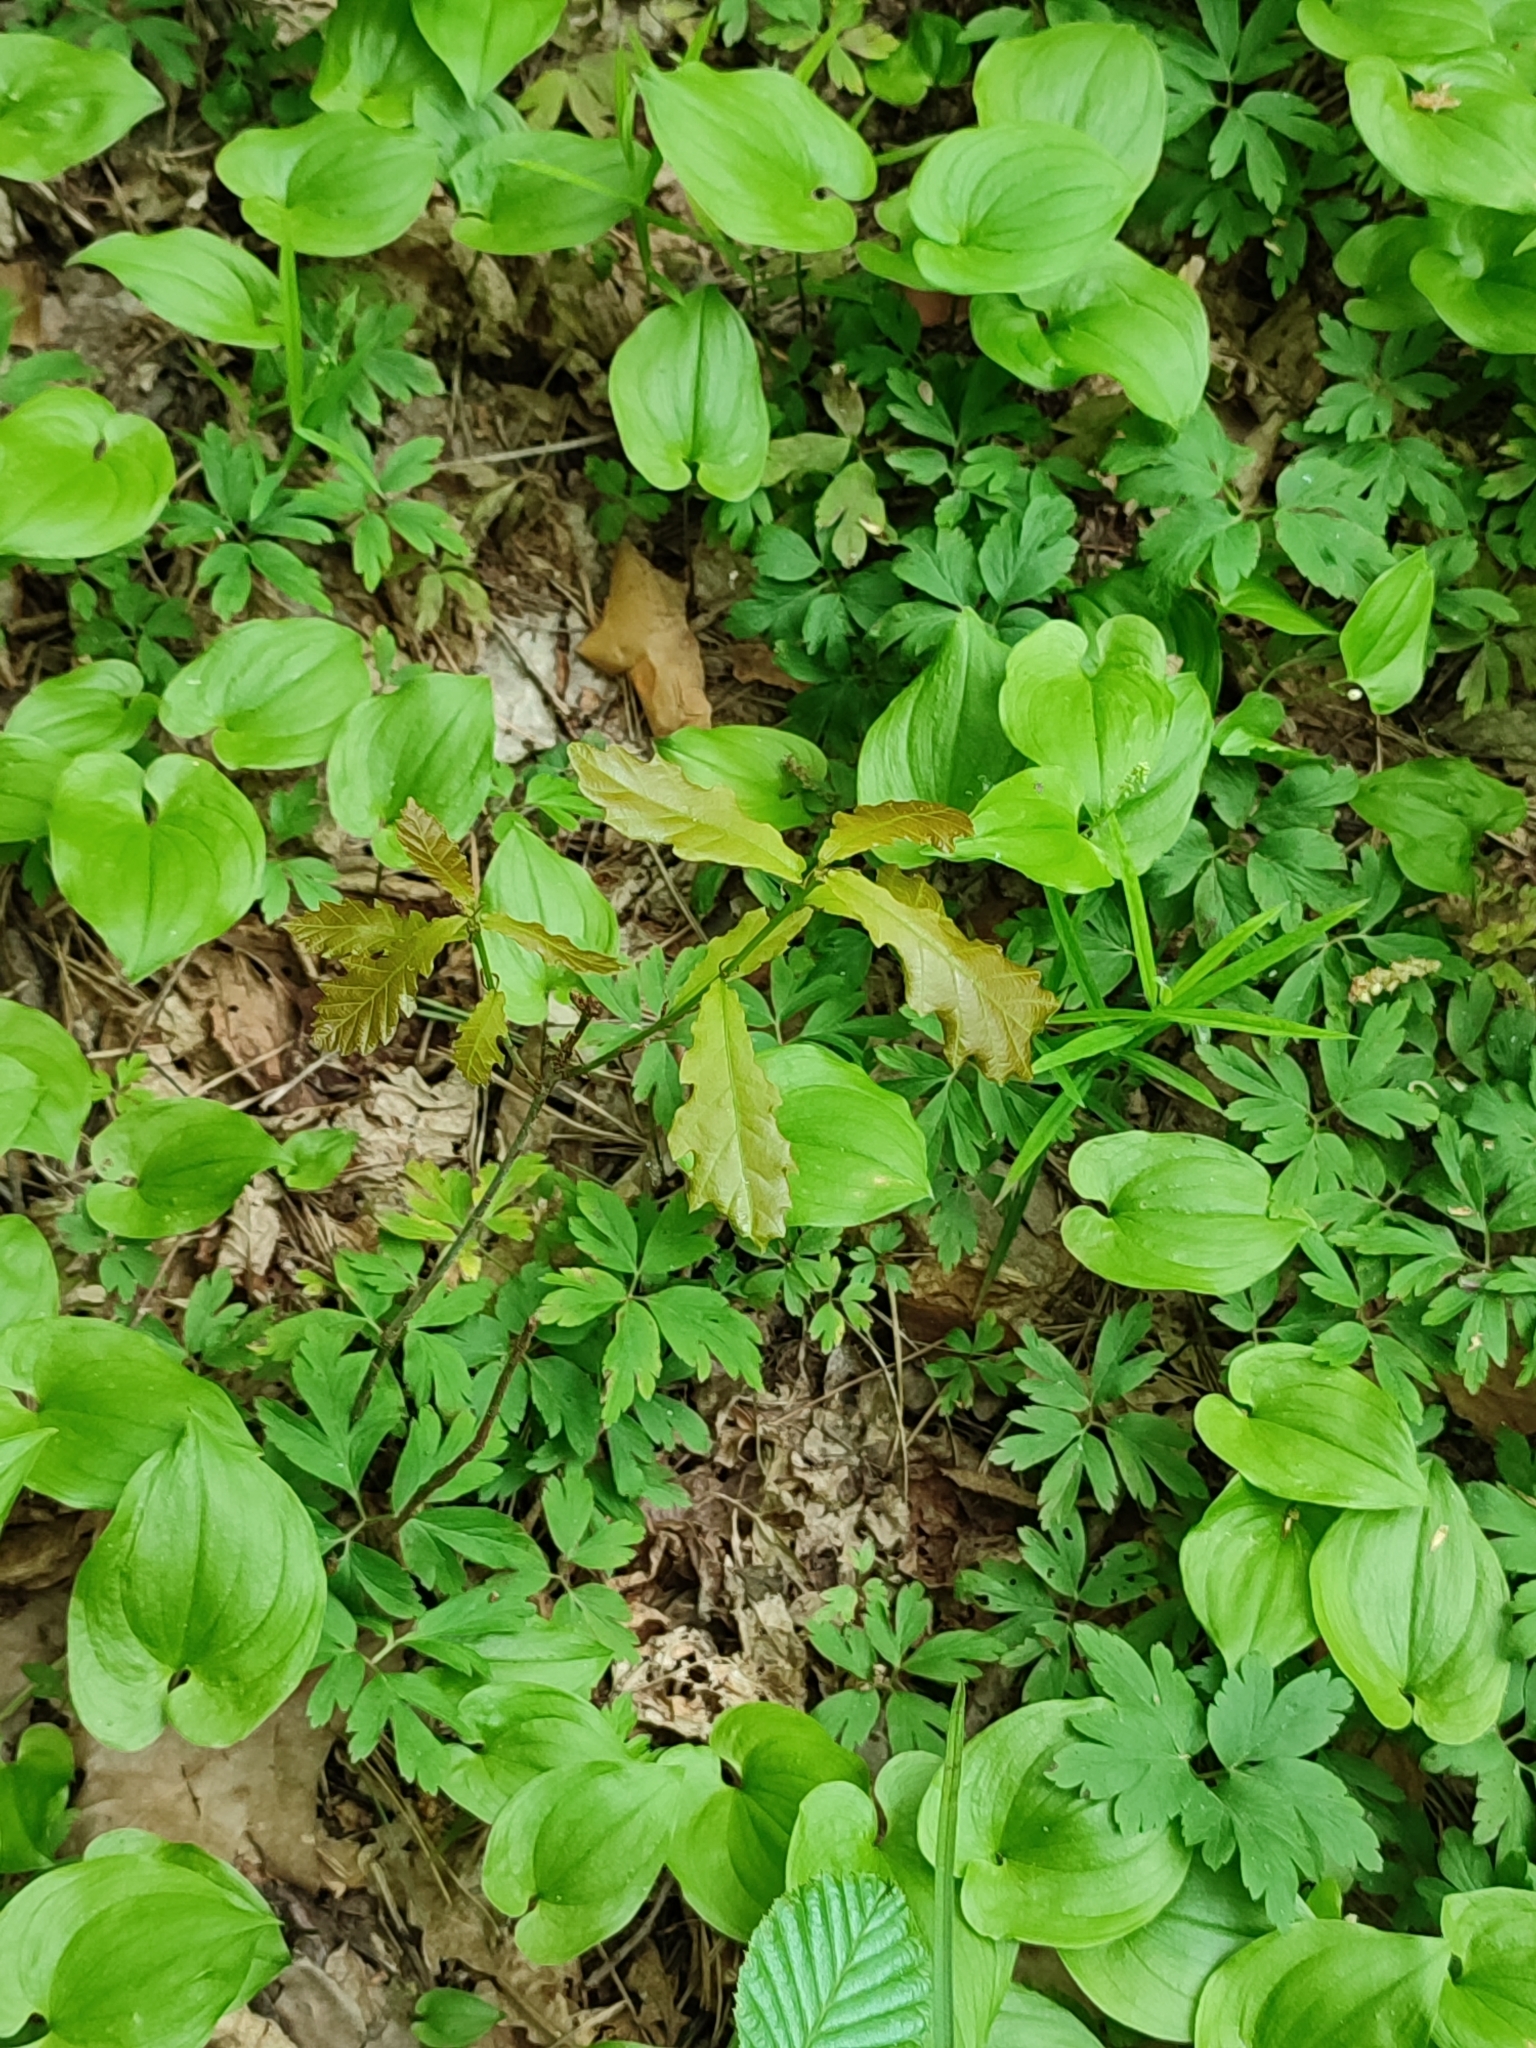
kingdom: Plantae
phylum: Tracheophyta
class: Magnoliopsida
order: Fagales
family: Fagaceae
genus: Quercus
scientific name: Quercus robur
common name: Pedunculate oak
